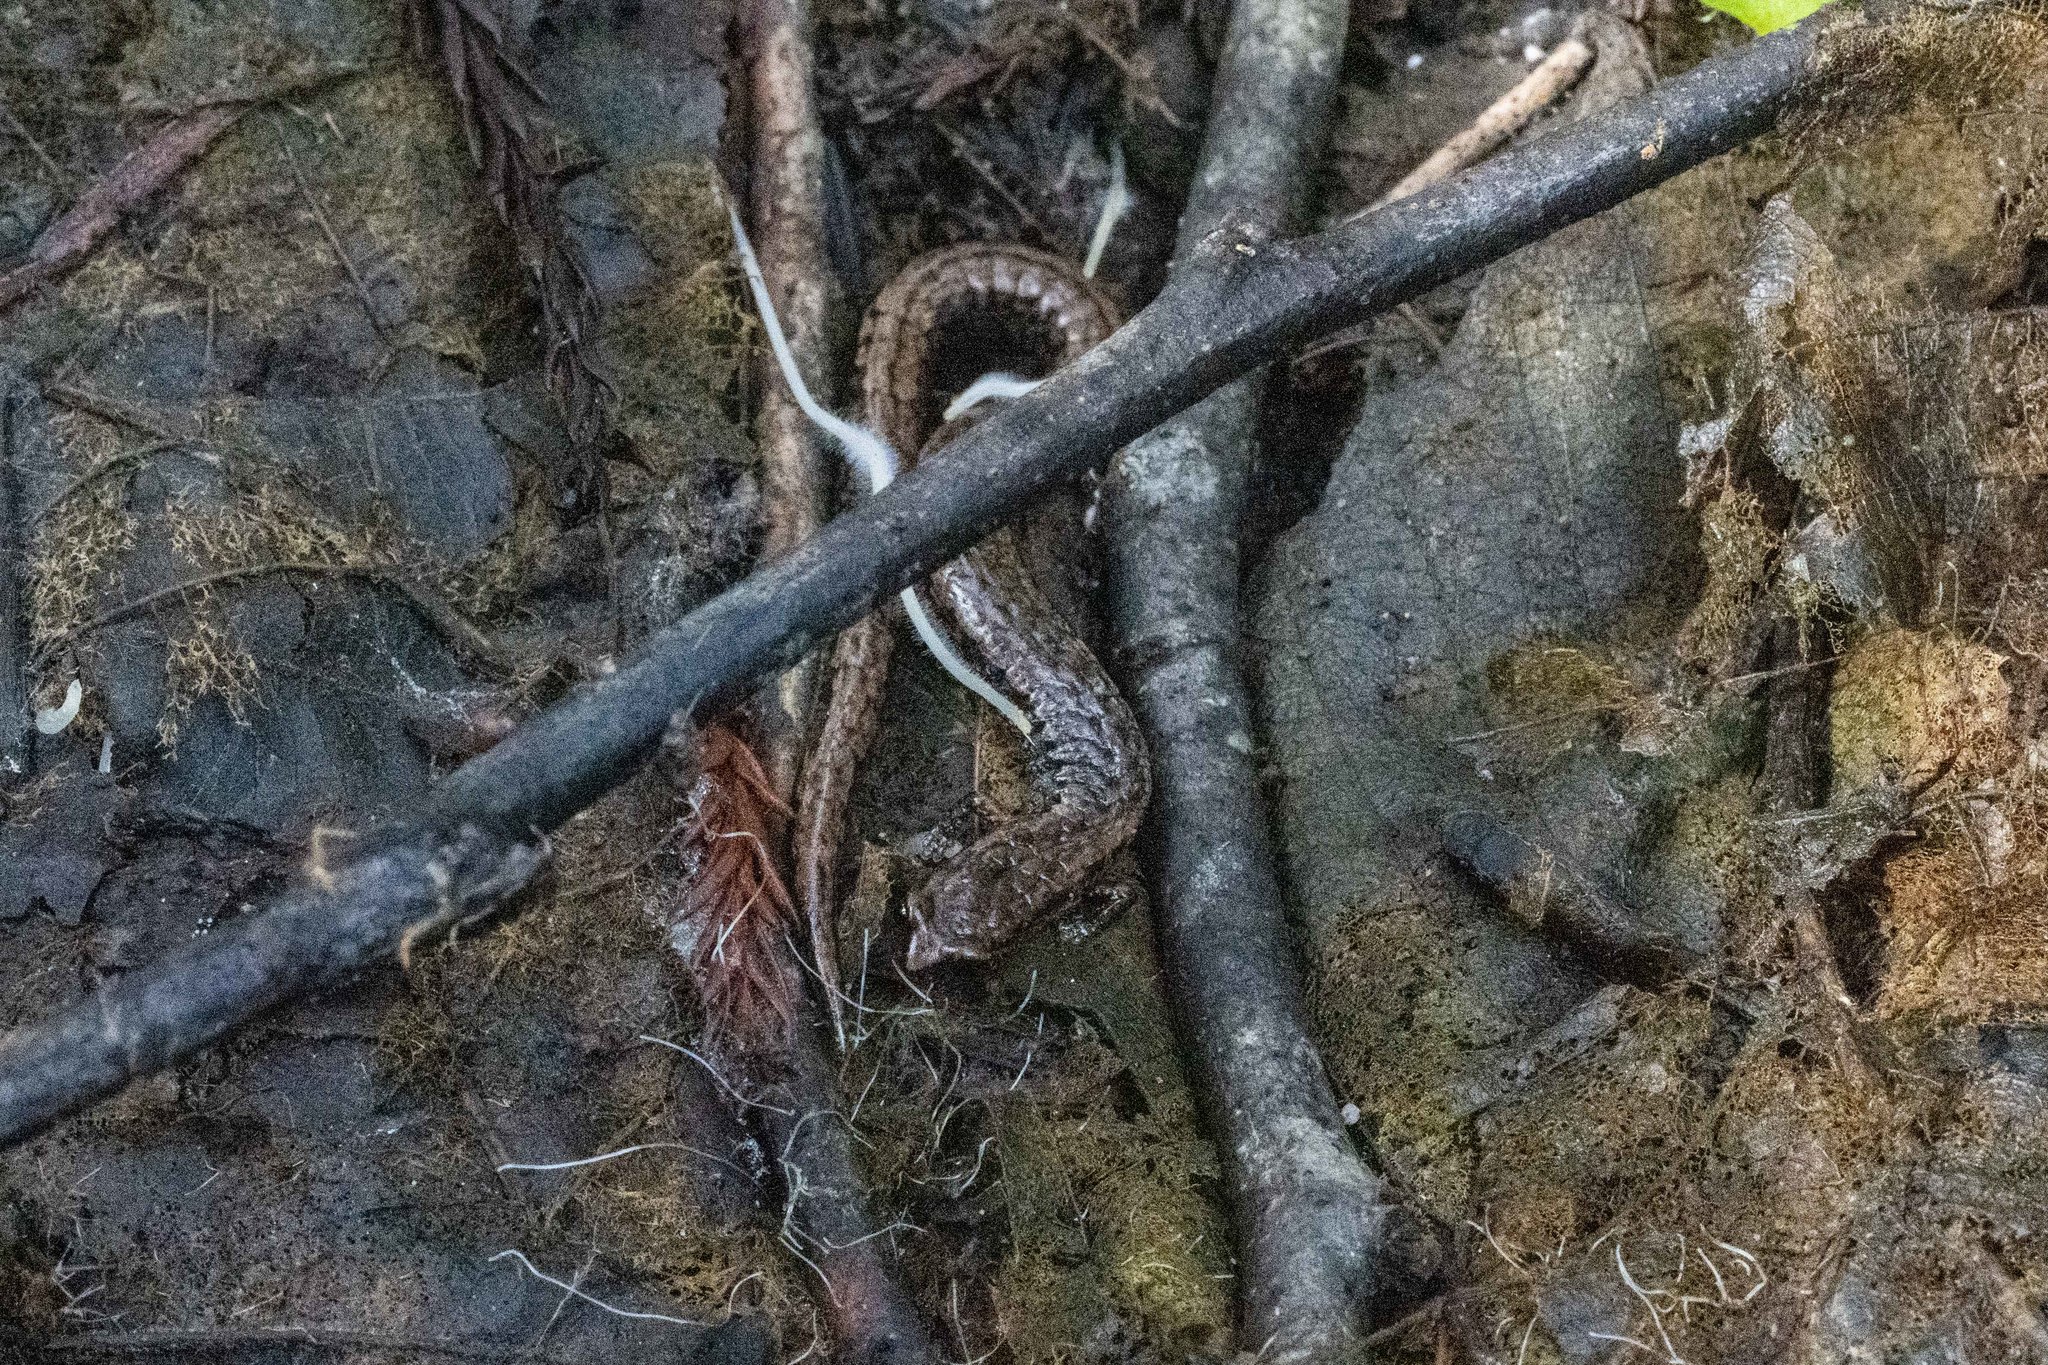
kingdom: Animalia
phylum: Chordata
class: Amphibia
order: Caudata
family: Plethodontidae
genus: Batrachoseps
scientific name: Batrachoseps attenuatus
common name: California slender salamander
